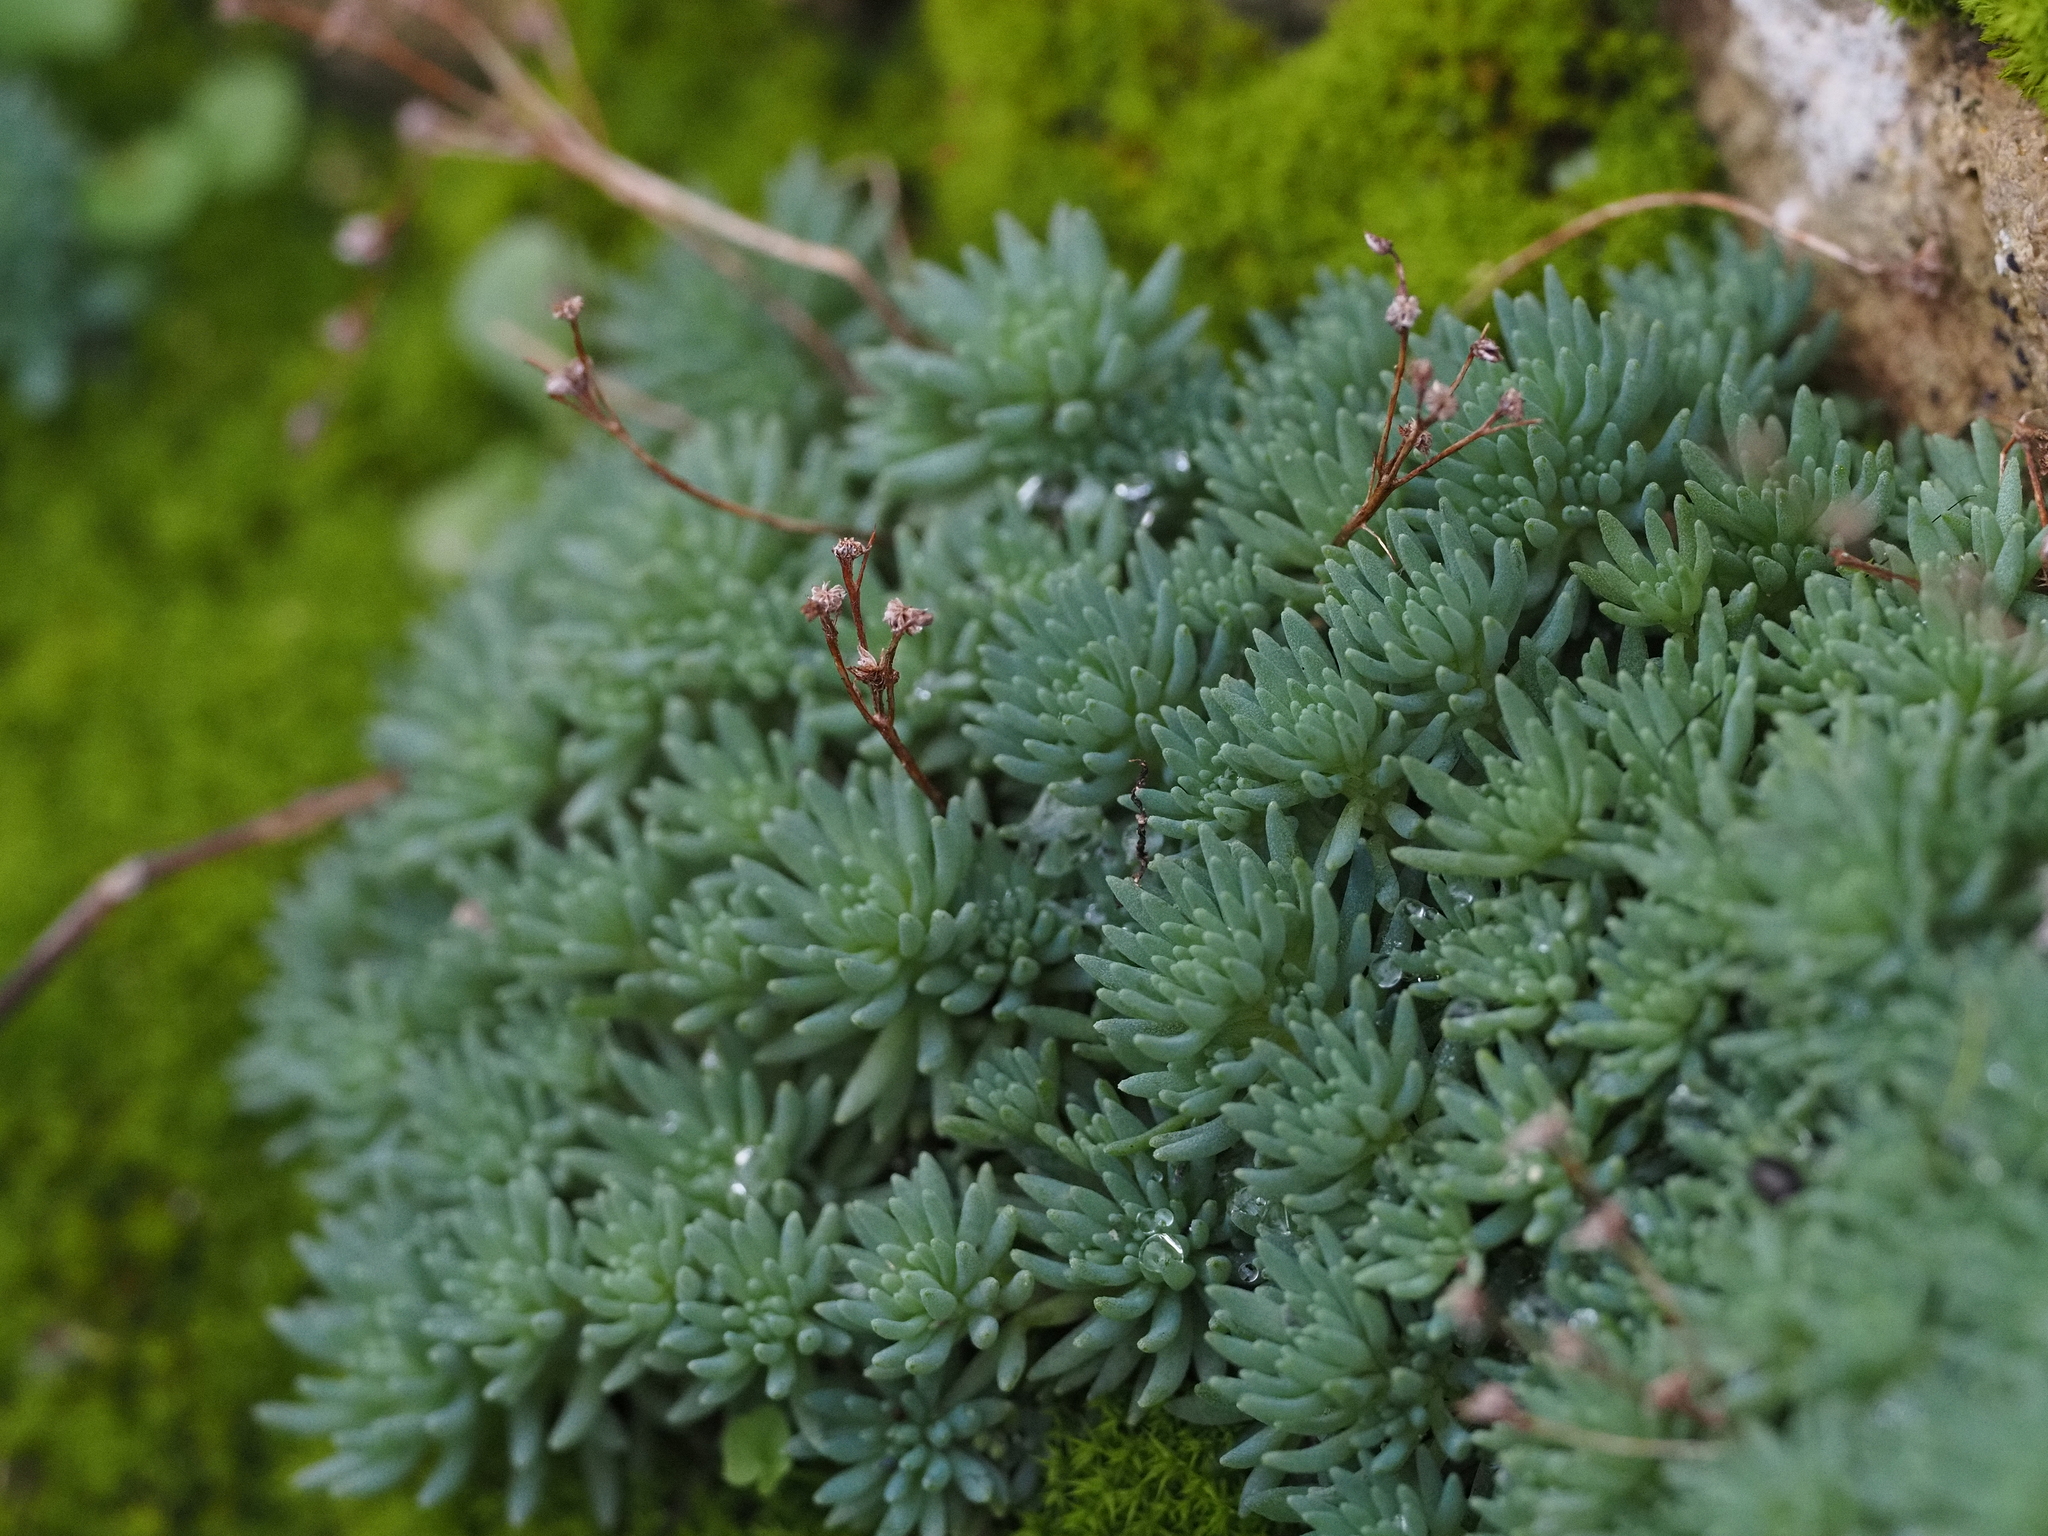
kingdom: Plantae
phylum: Tracheophyta
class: Magnoliopsida
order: Saxifragales
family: Crassulaceae
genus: Sedum
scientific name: Sedum hispanicum
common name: Spanish stonecrop
